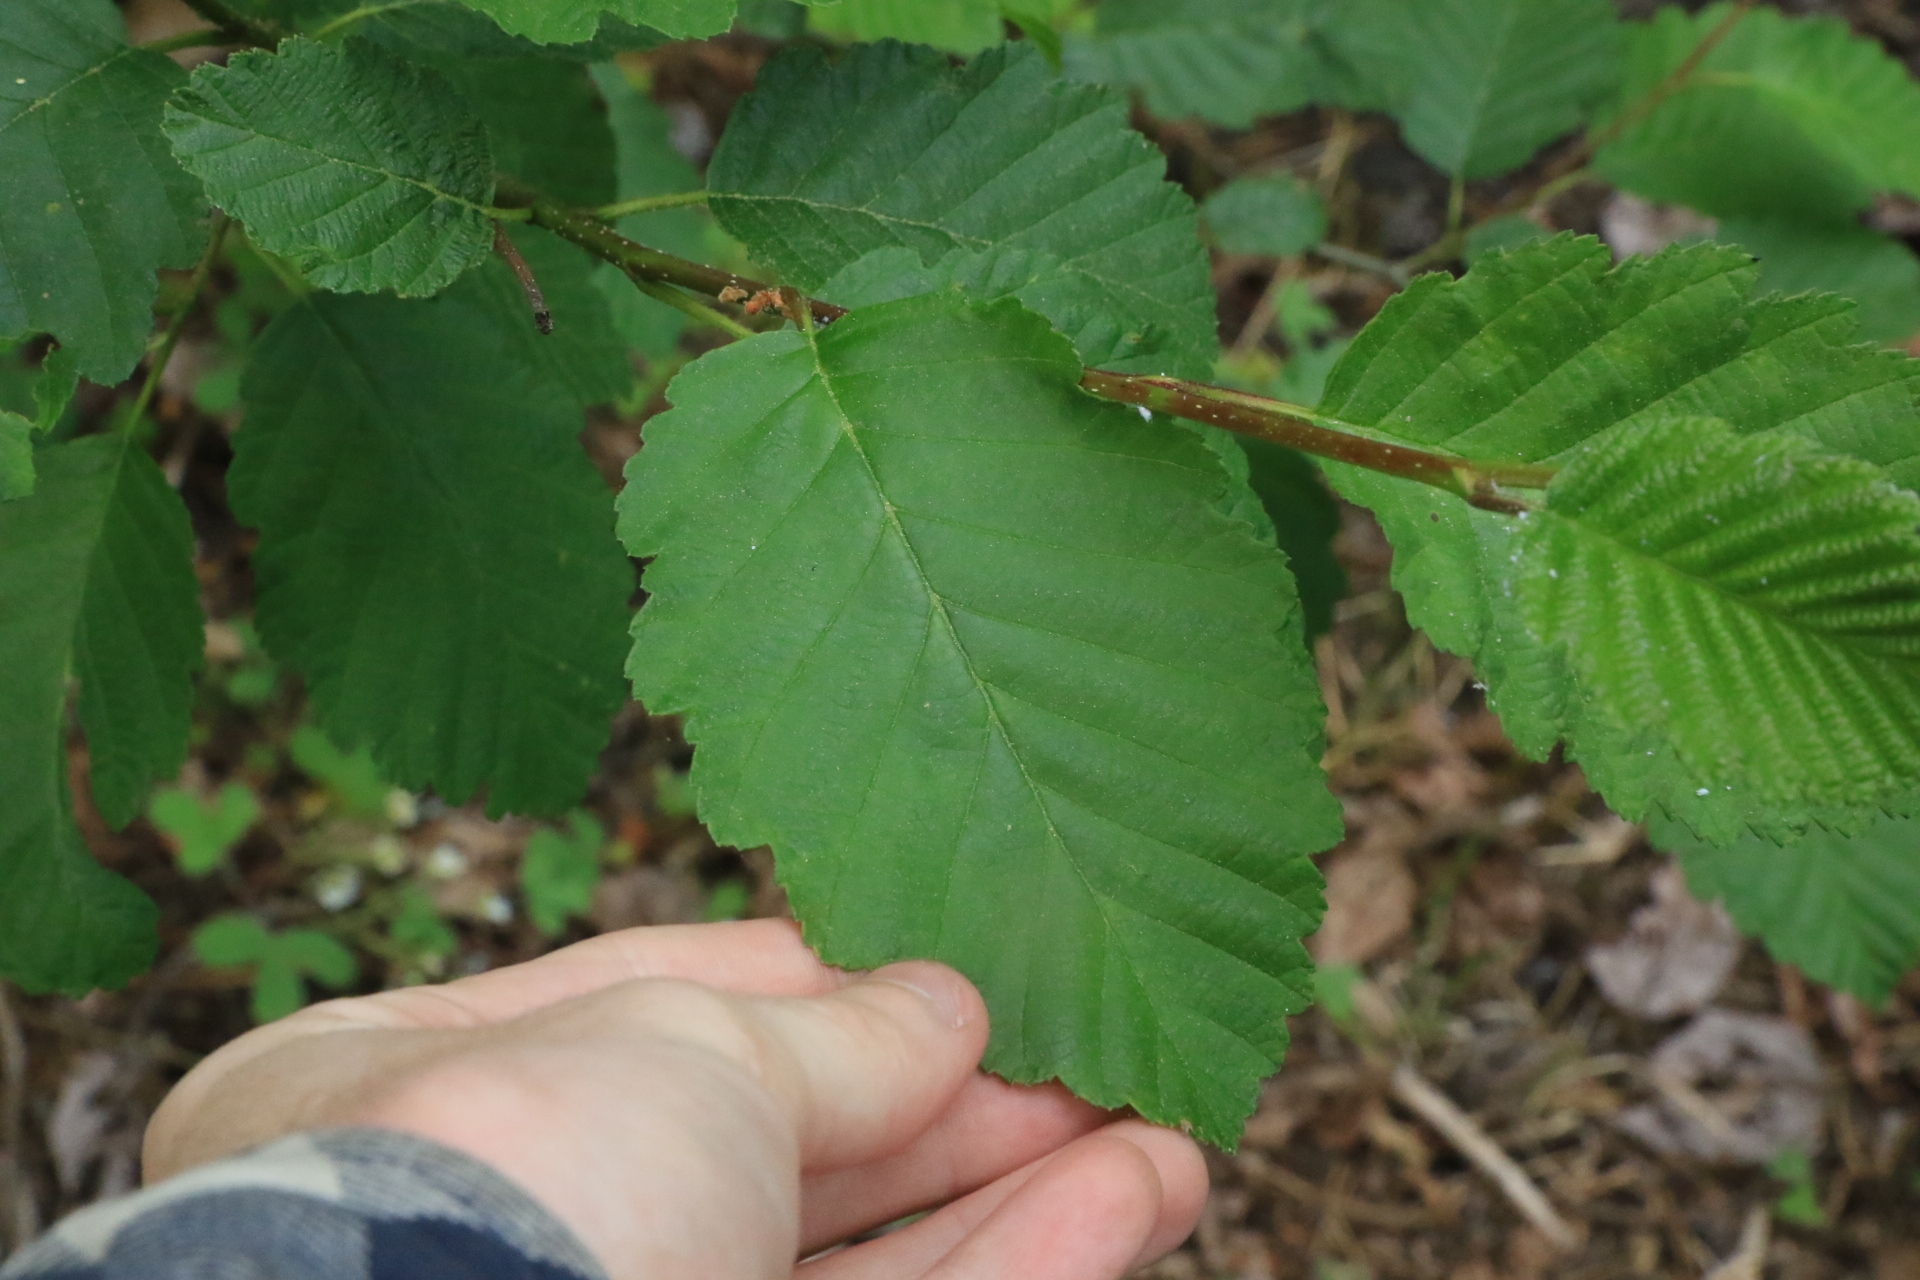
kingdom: Plantae
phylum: Tracheophyta
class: Magnoliopsida
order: Fagales
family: Betulaceae
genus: Alnus
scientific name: Alnus rubra
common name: Red alder
